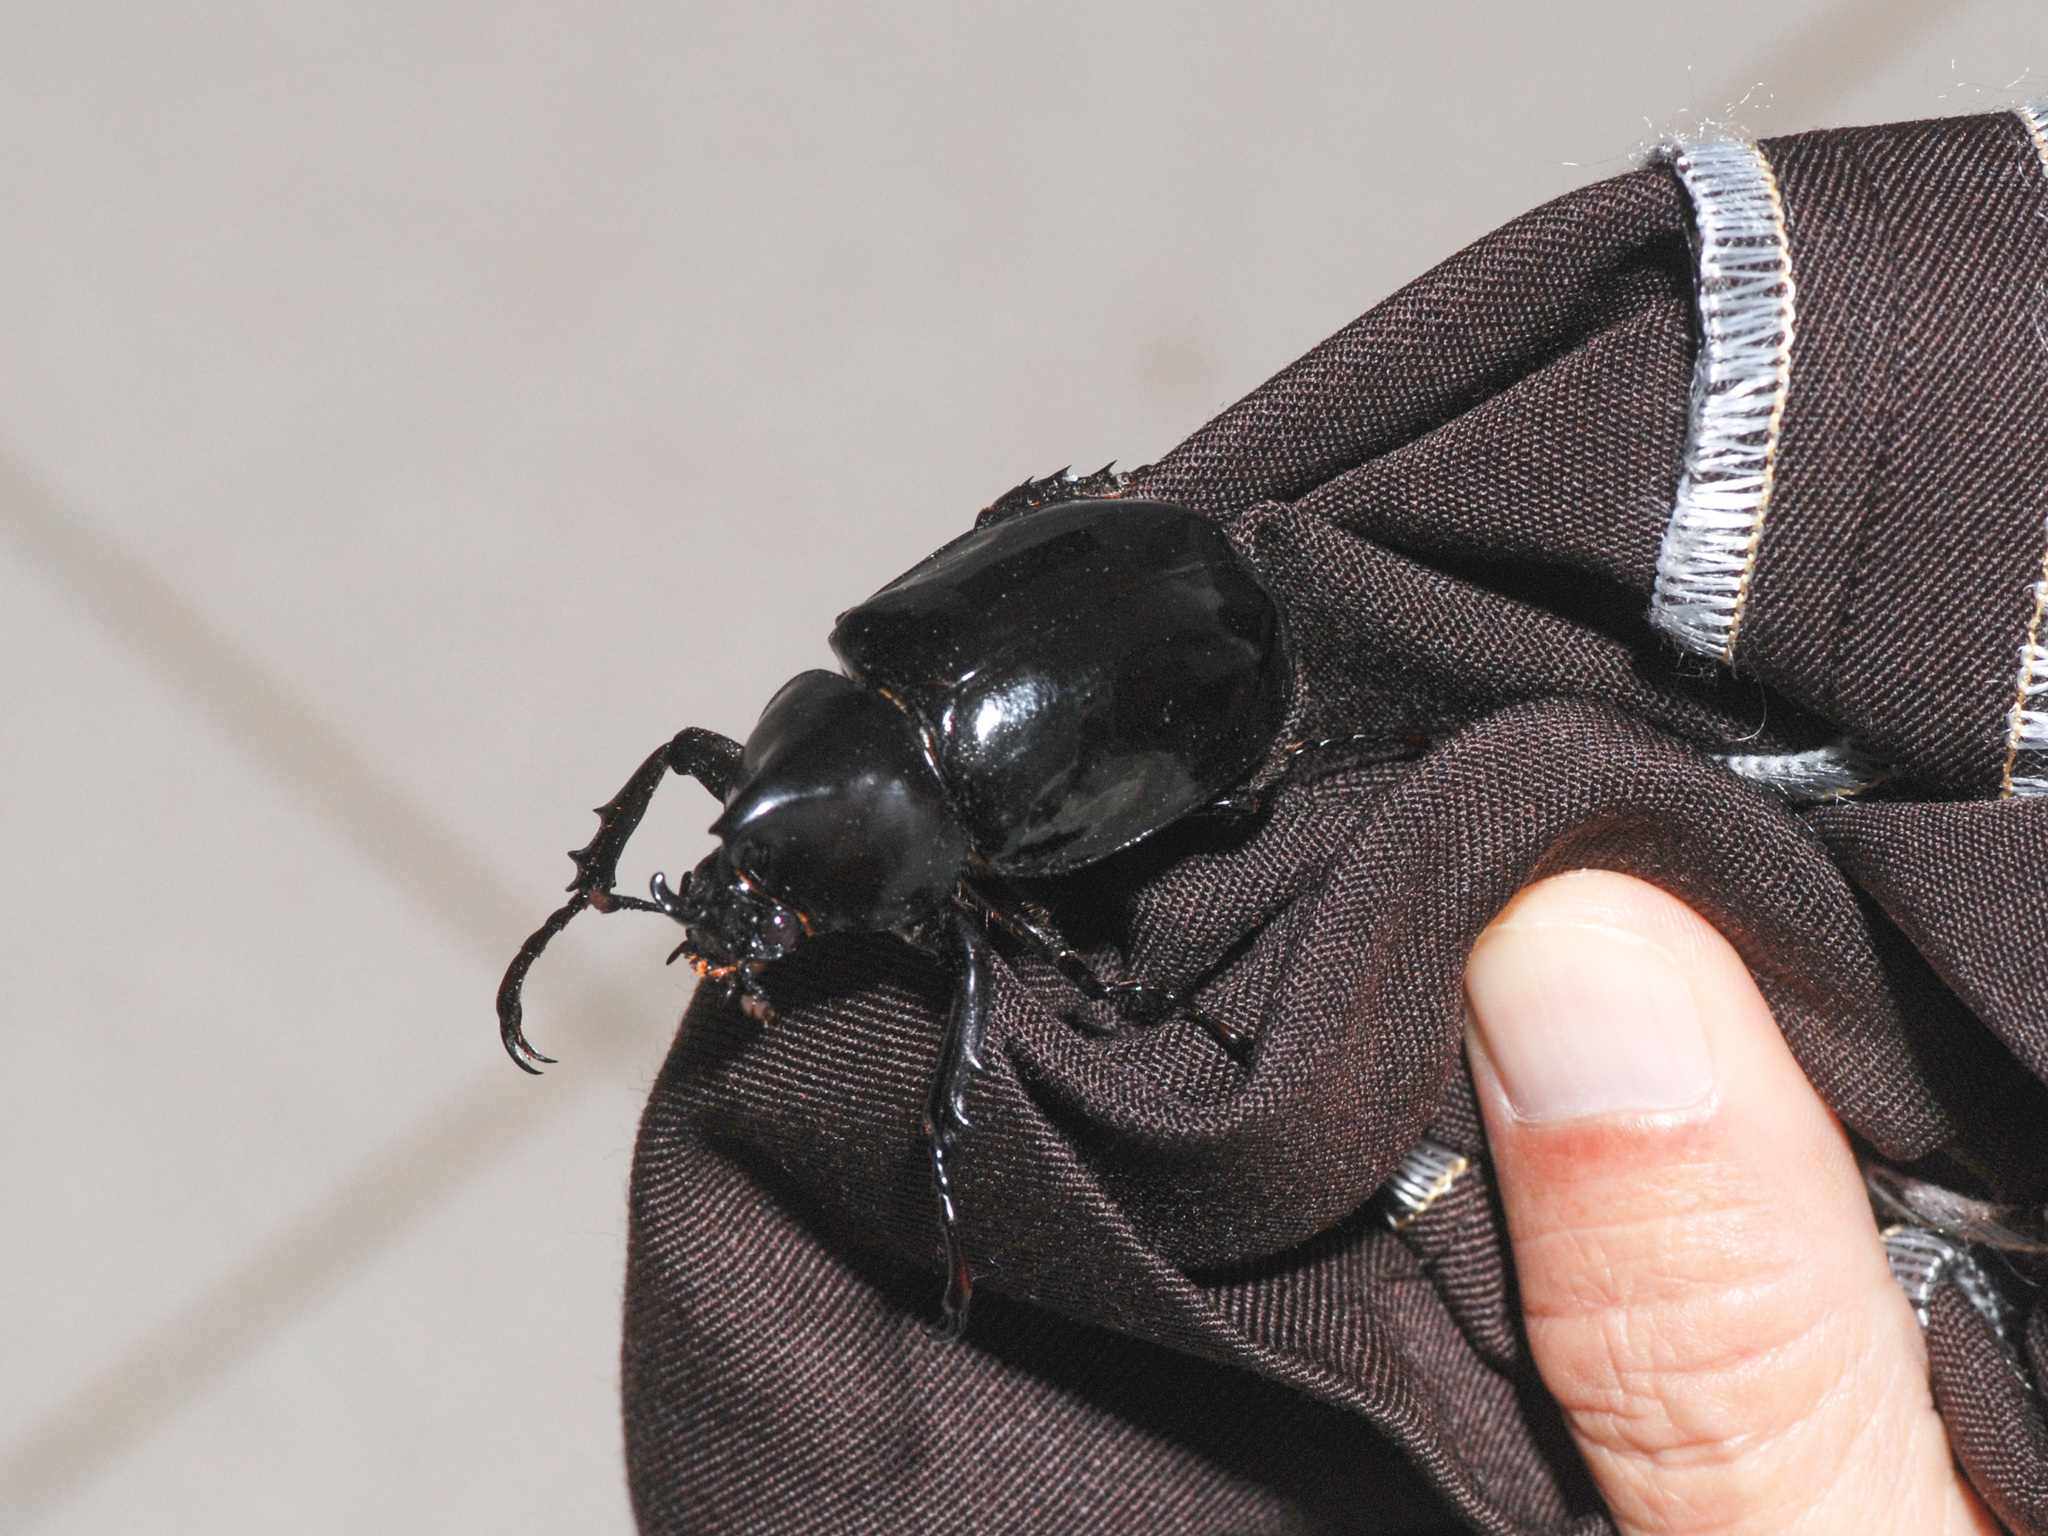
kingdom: Animalia
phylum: Arthropoda
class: Insecta
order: Coleoptera
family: Scarabaeidae
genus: Xylotrupes
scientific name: Xylotrupes sumatrensis
